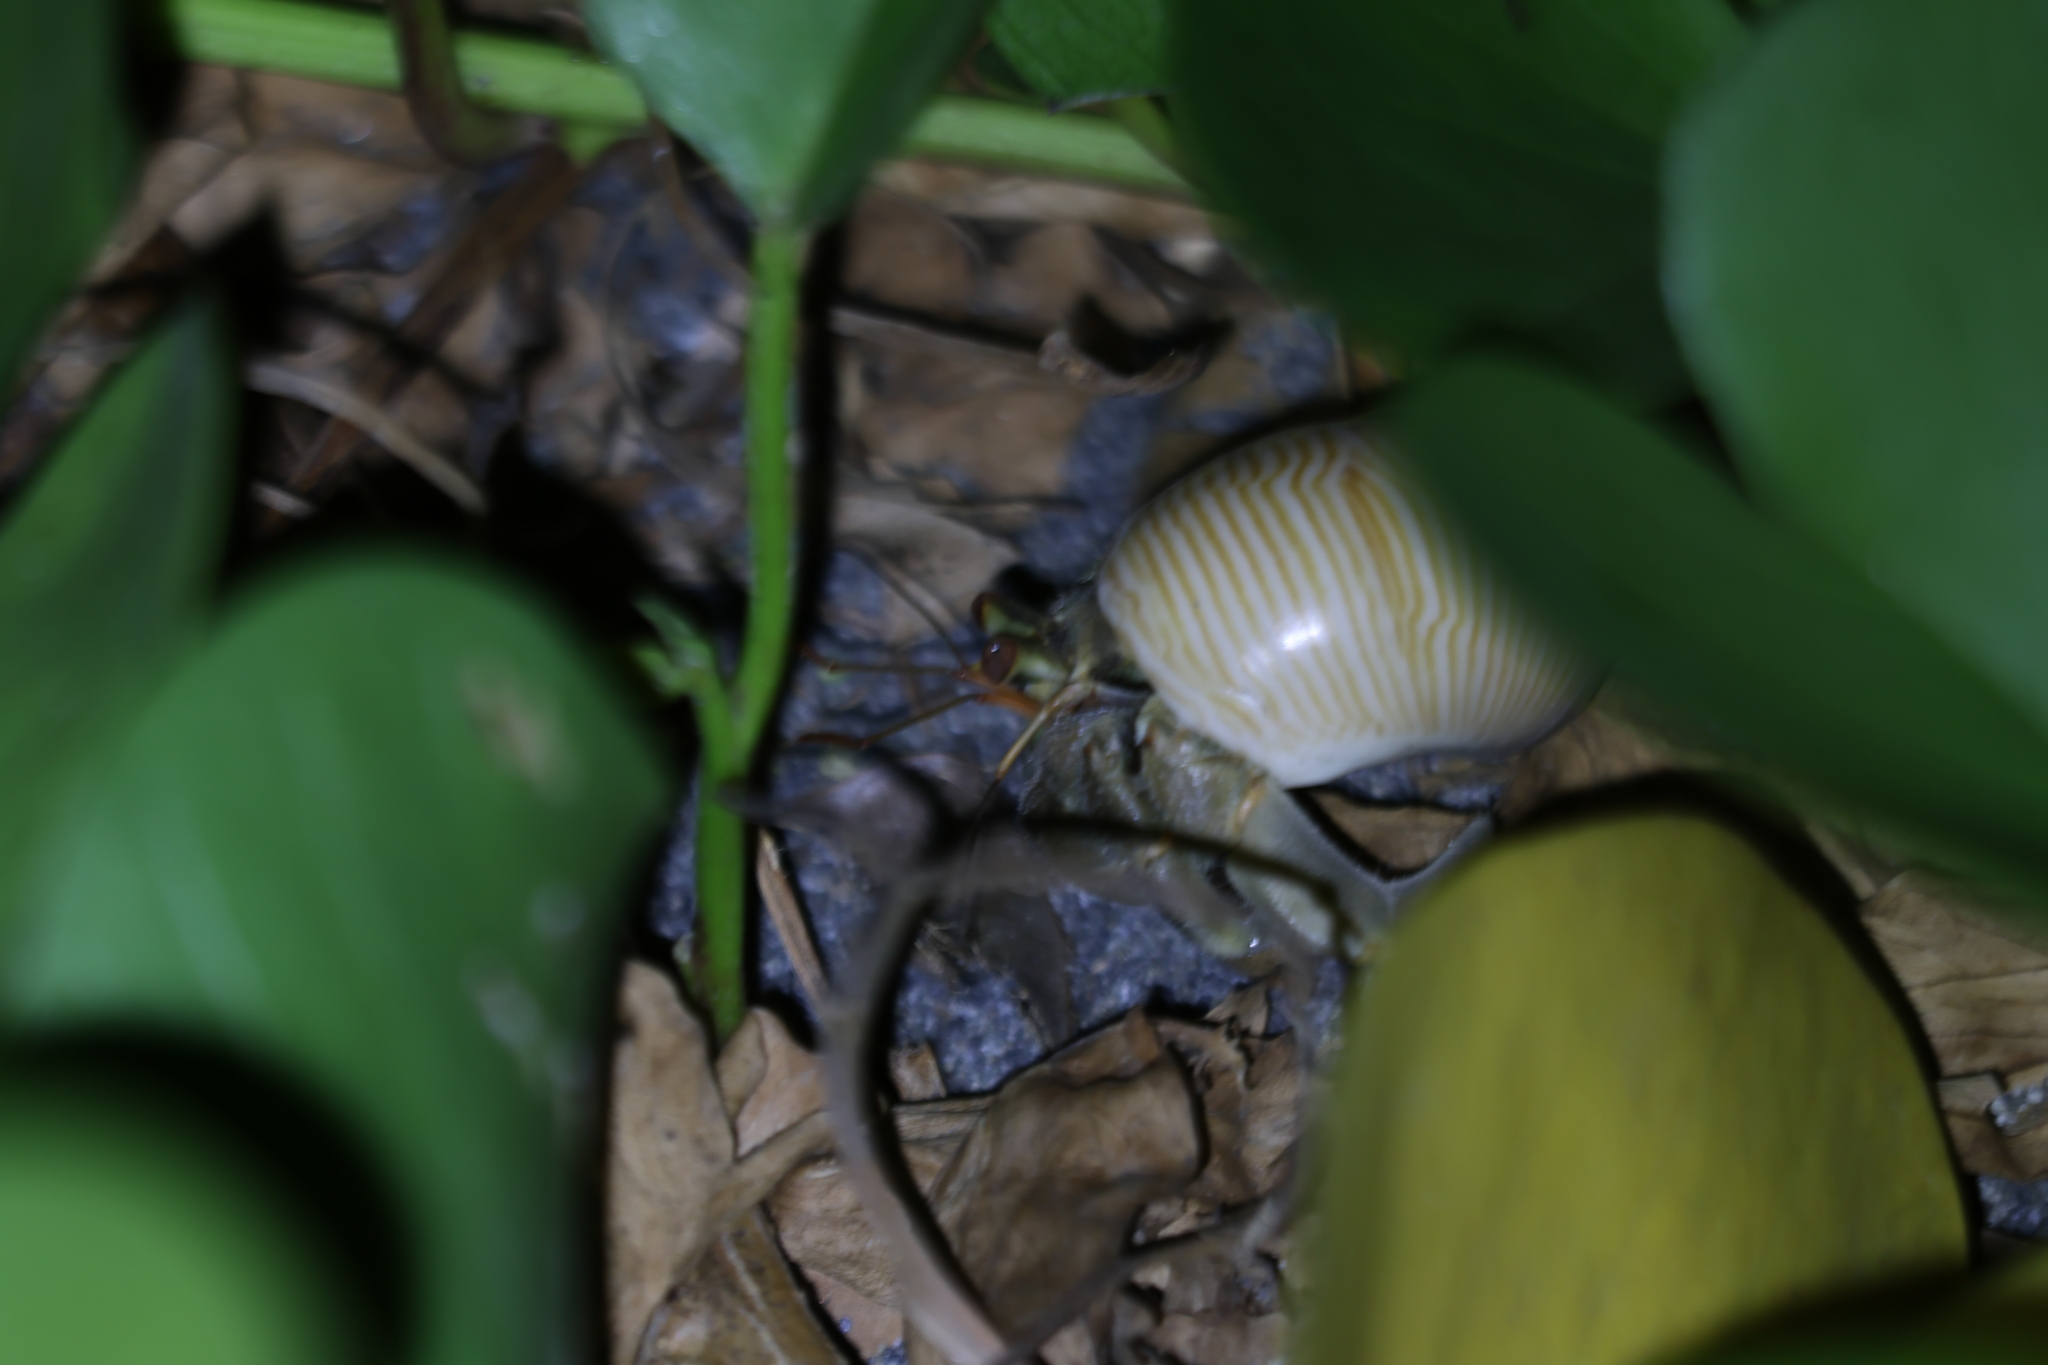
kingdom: Animalia
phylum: Arthropoda
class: Malacostraca
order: Decapoda
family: Coenobitidae
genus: Coenobita
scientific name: Coenobita rugosus
